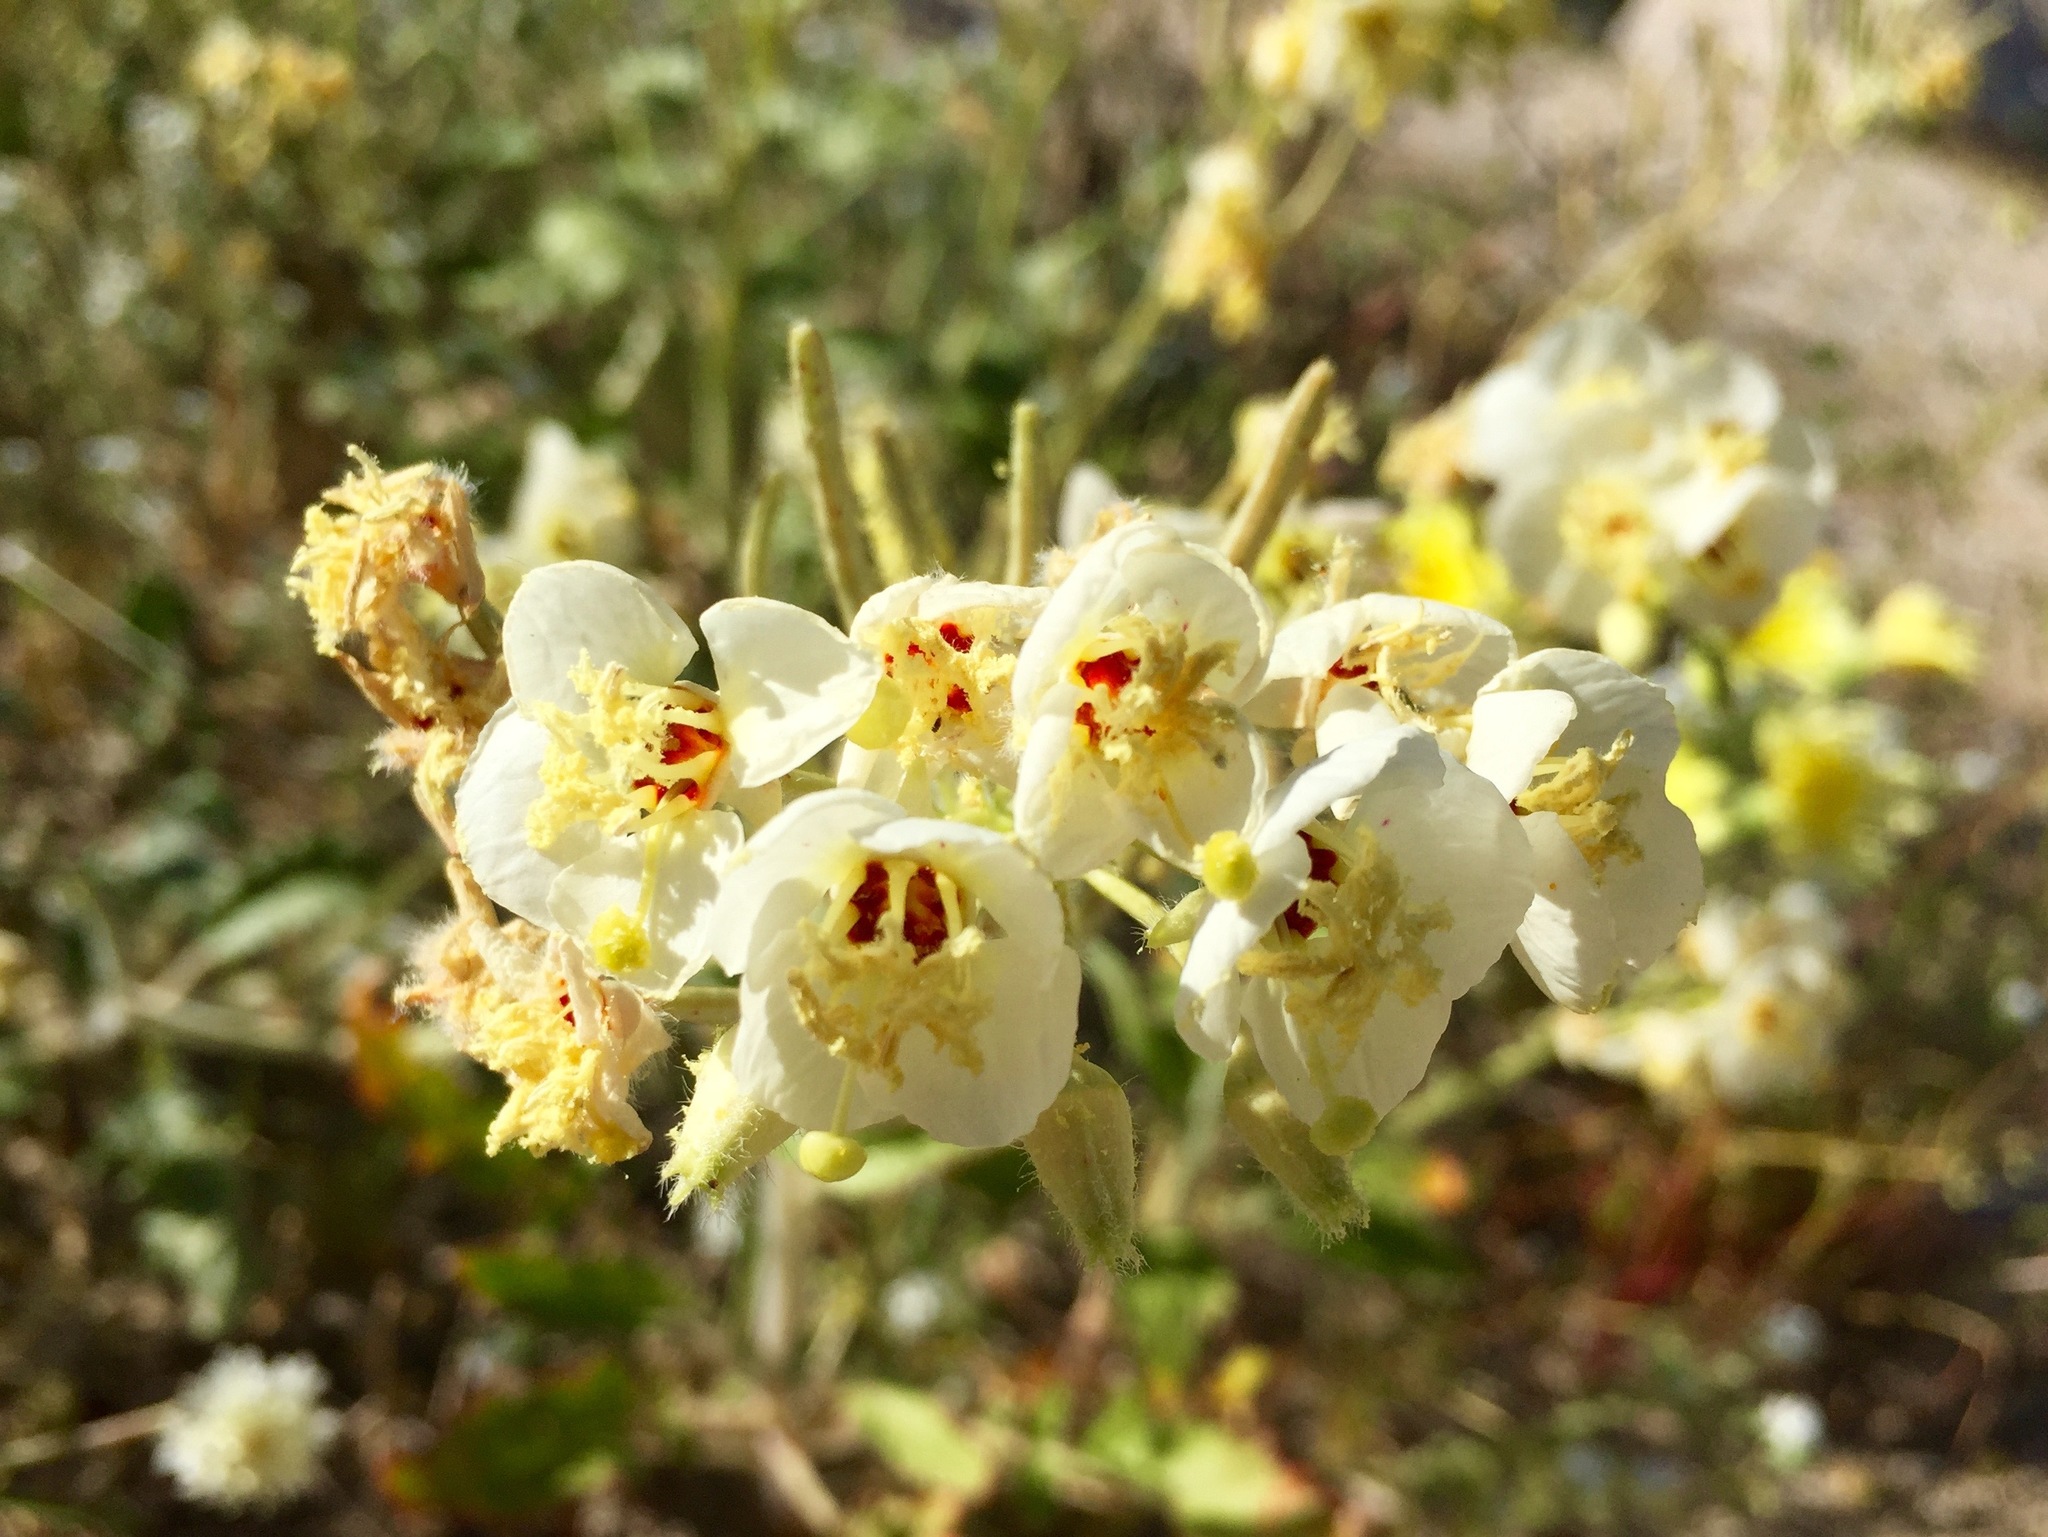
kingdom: Plantae
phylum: Tracheophyta
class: Magnoliopsida
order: Myrtales
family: Onagraceae
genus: Chylismia
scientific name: Chylismia claviformis
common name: Browneyes
